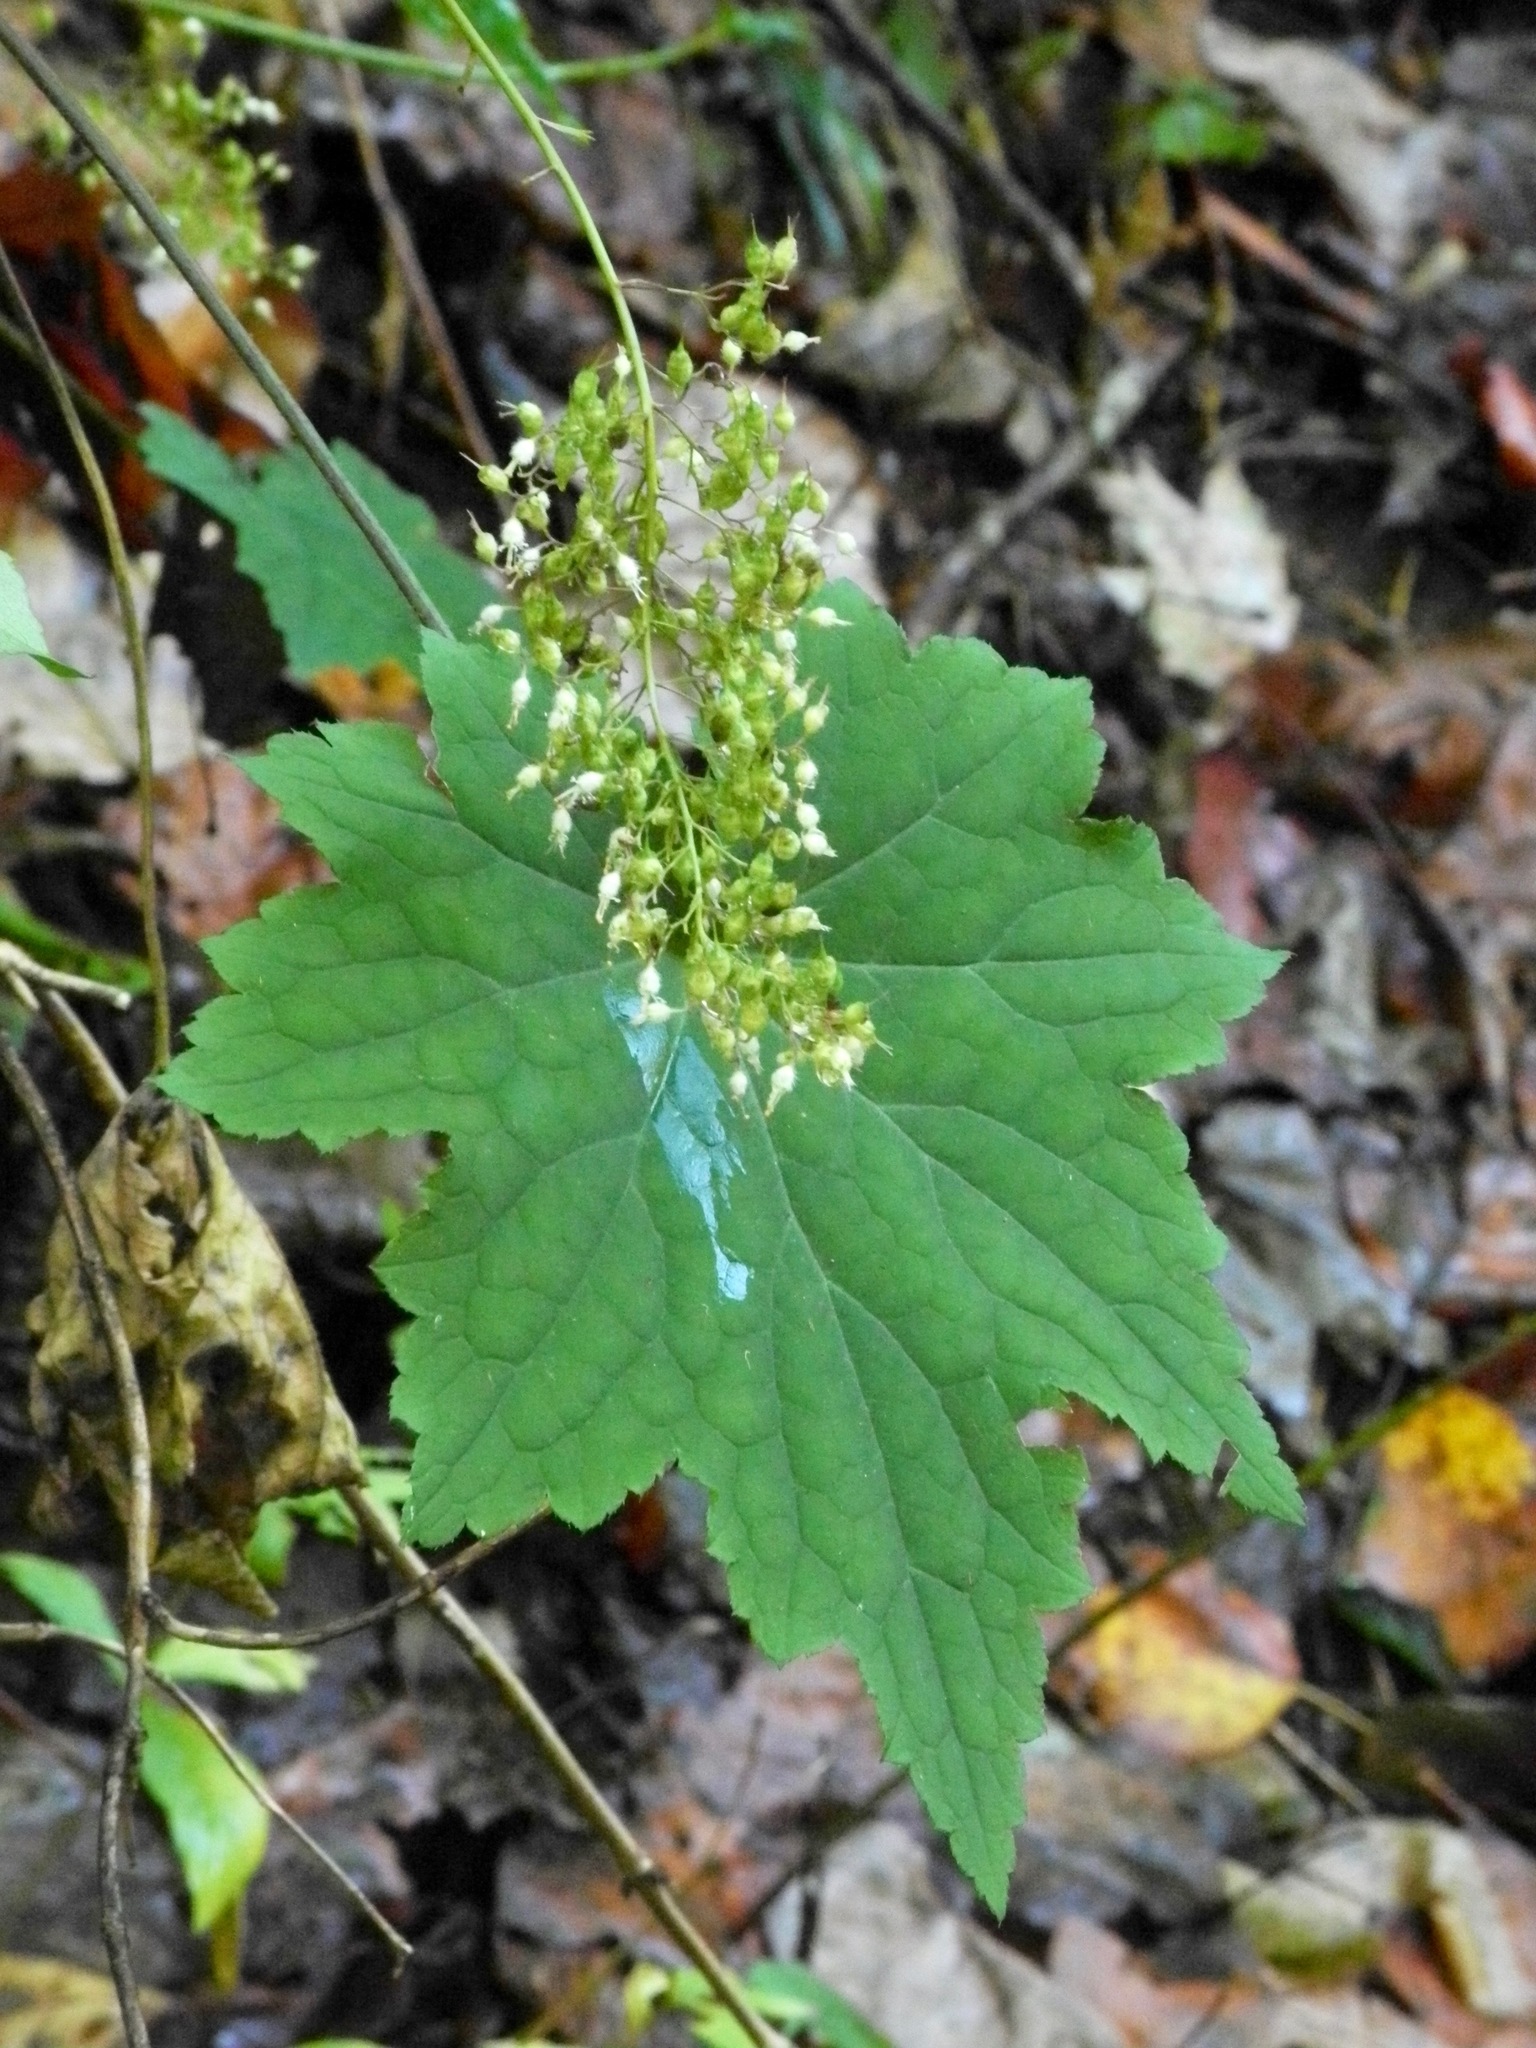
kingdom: Plantae
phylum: Tracheophyta
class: Magnoliopsida
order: Saxifragales
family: Saxifragaceae
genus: Heuchera
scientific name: Heuchera villosa
